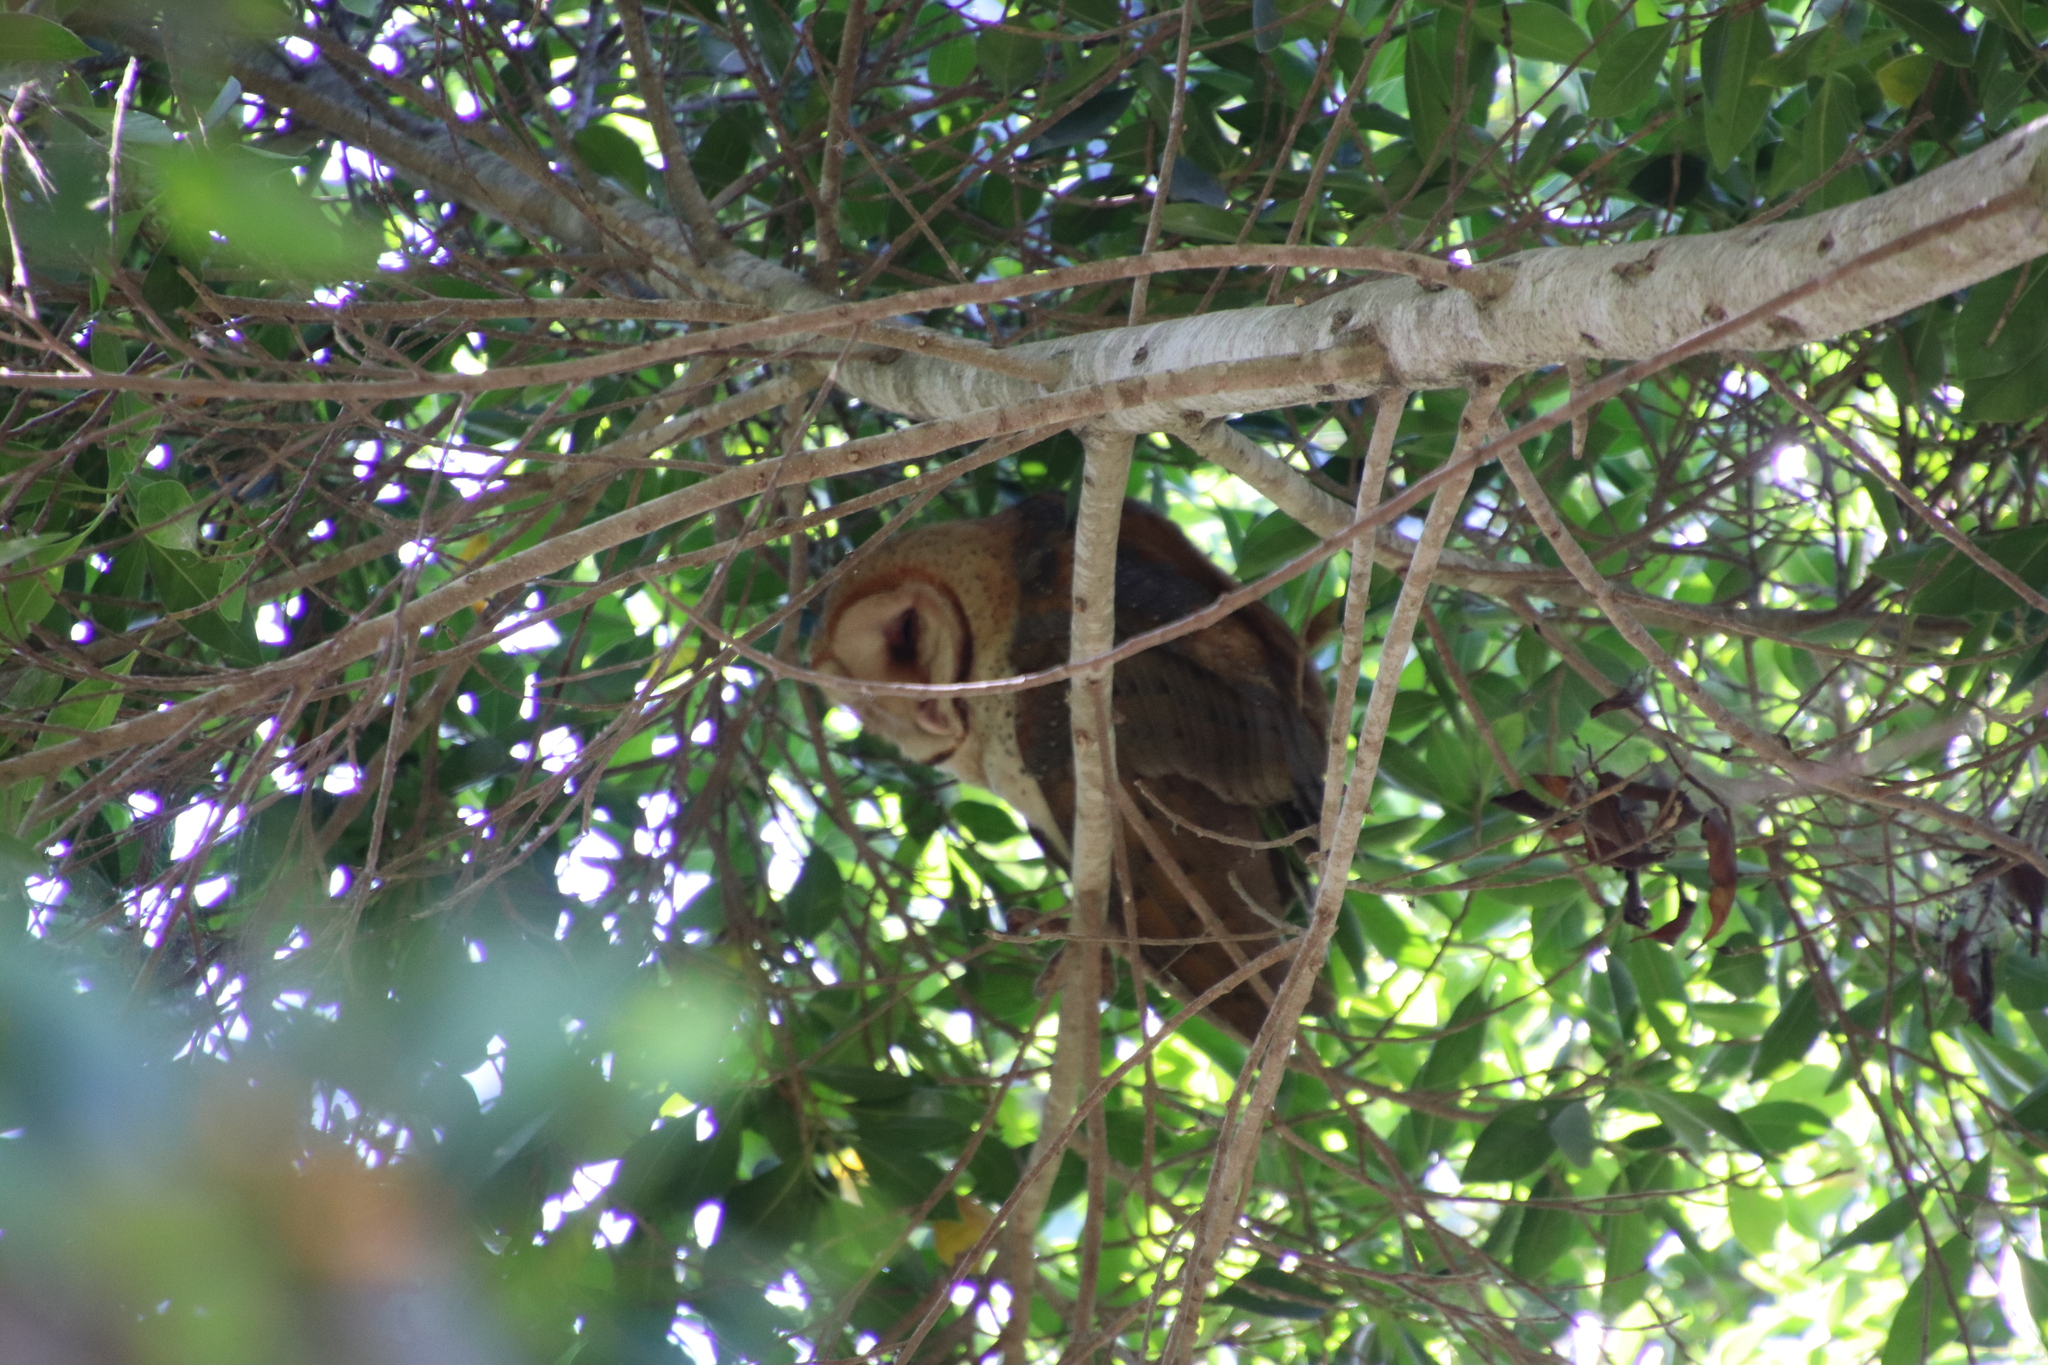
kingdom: Animalia
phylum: Chordata
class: Aves
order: Strigiformes
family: Tytonidae
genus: Tyto
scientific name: Tyto alba
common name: Barn owl
